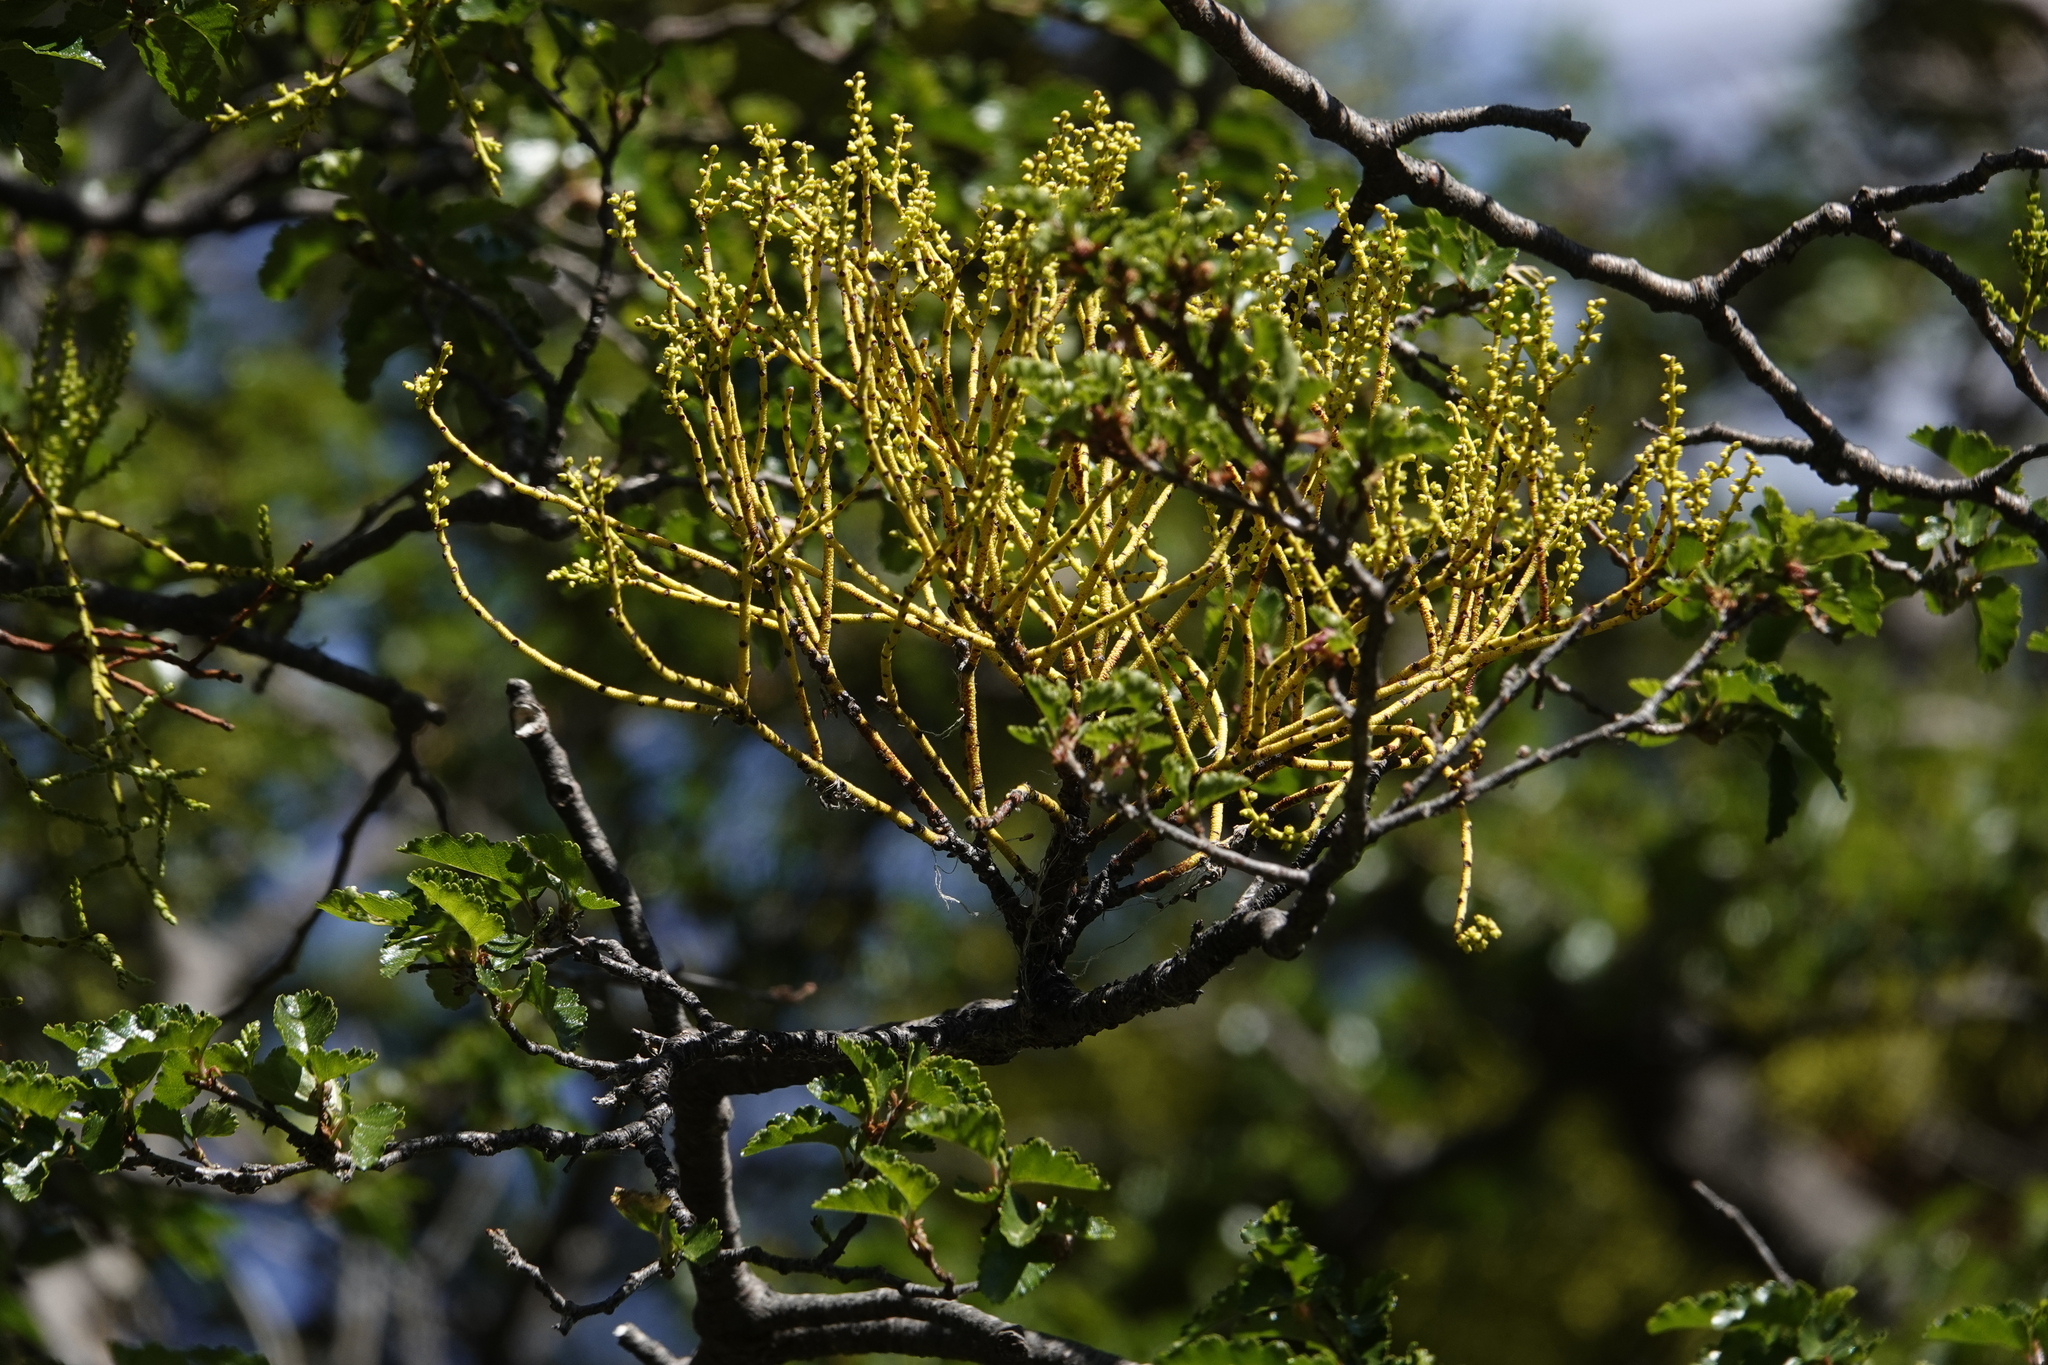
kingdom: Plantae
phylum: Tracheophyta
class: Magnoliopsida
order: Santalales
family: Misodendraceae
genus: Misodendrum
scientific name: Misodendrum punctulatum
